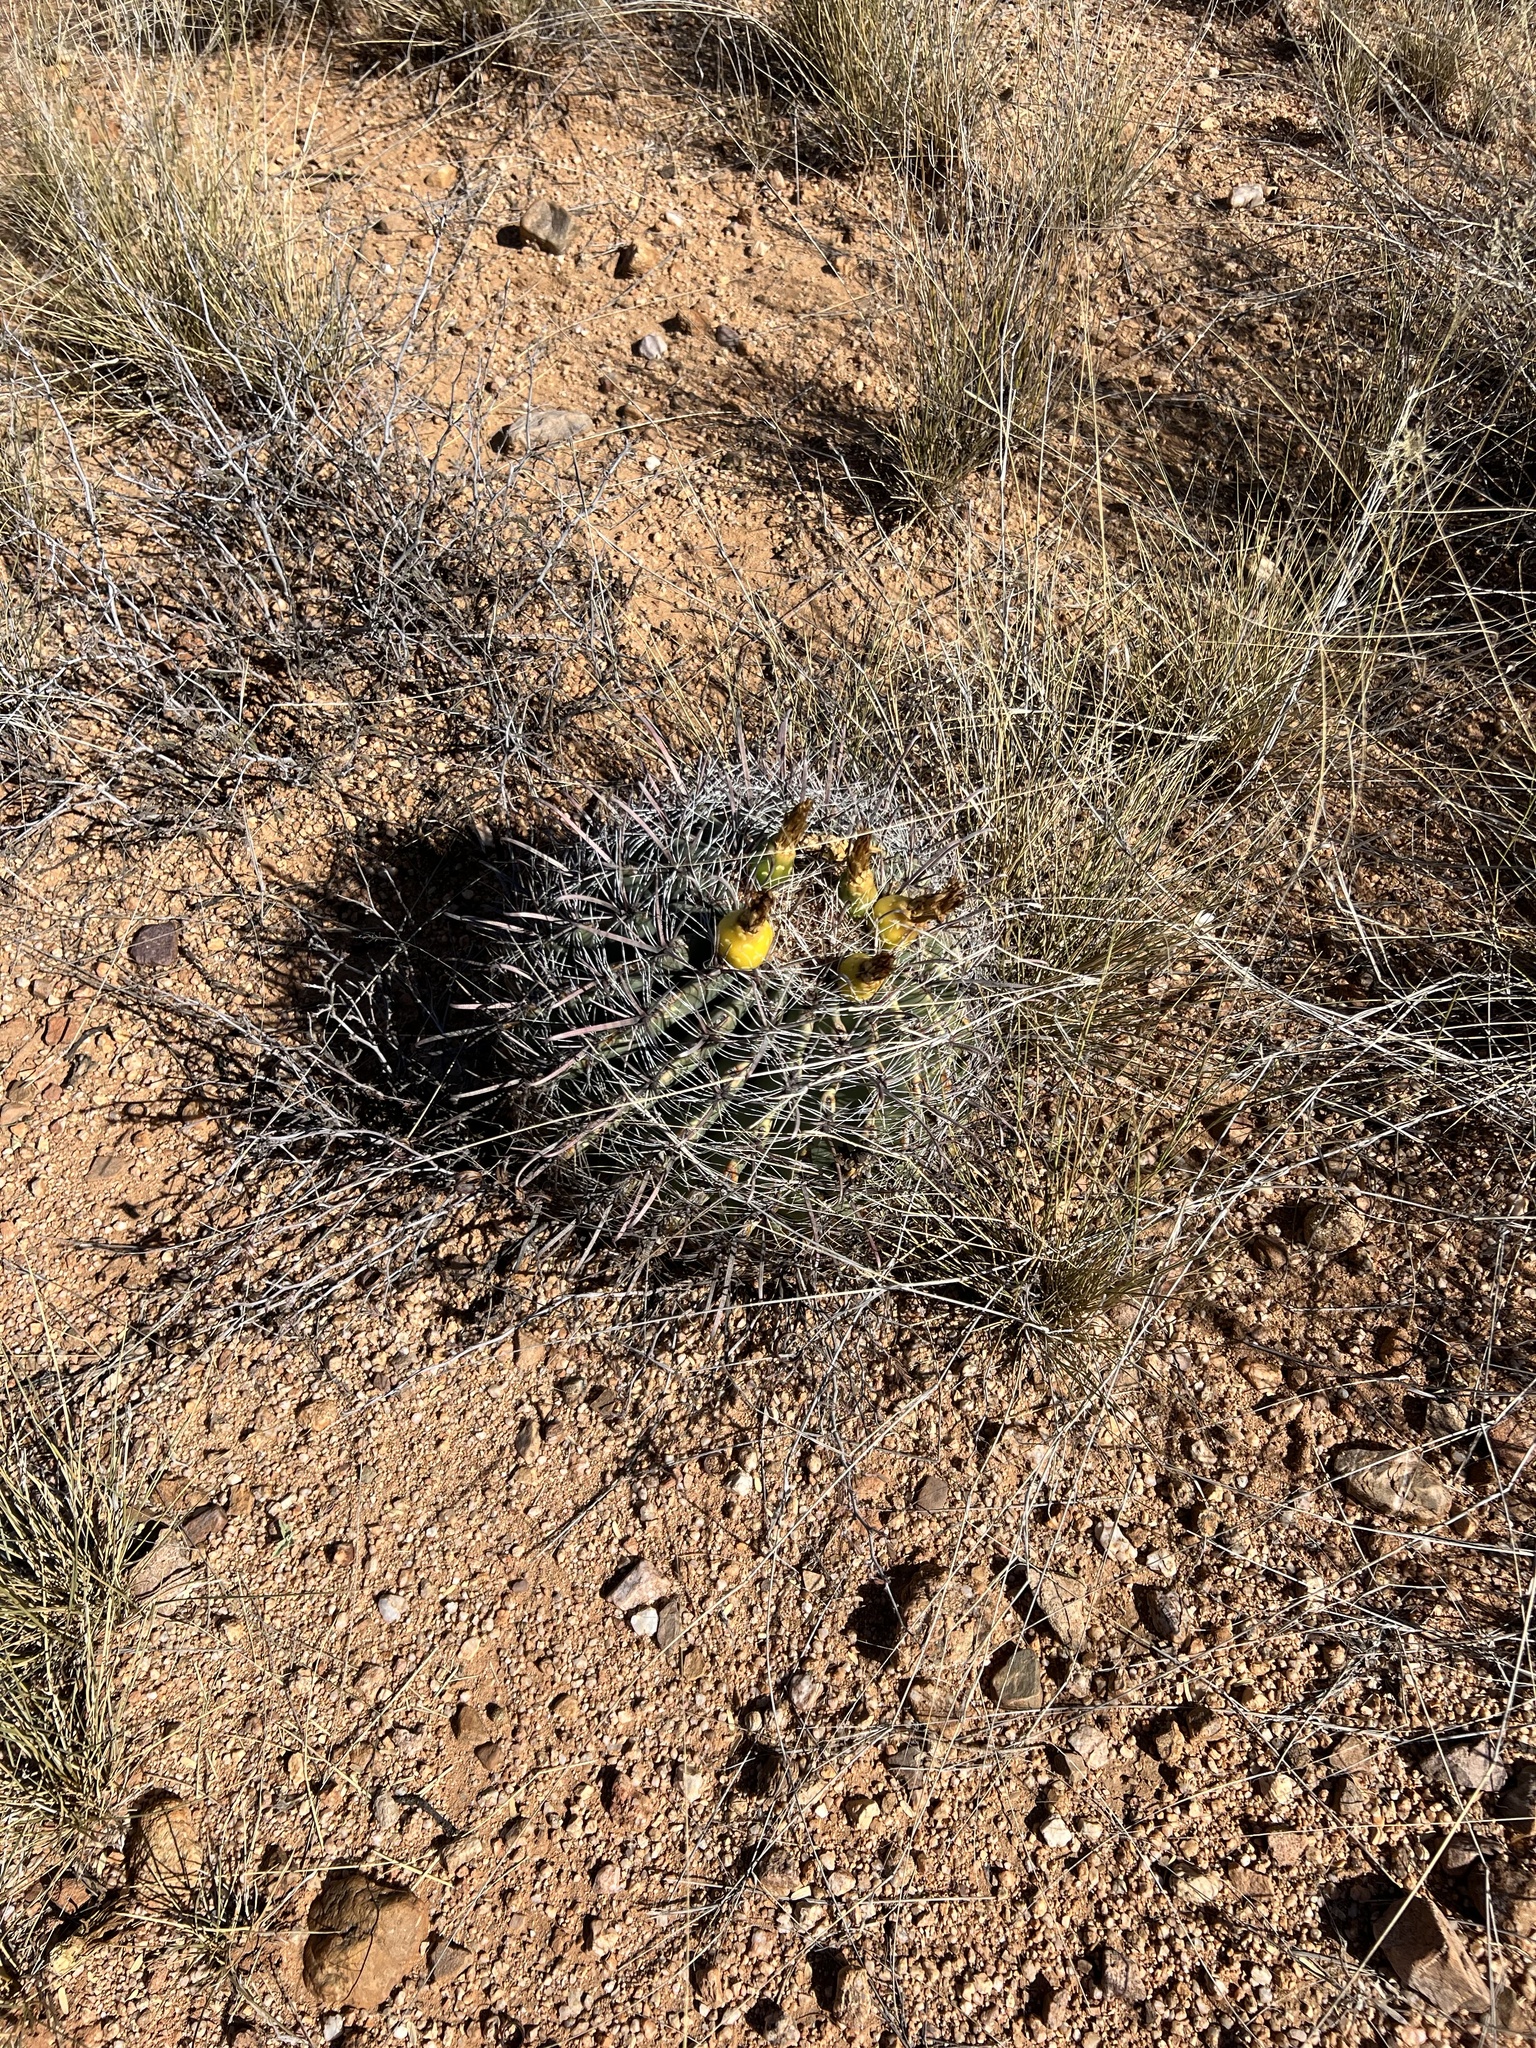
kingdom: Plantae
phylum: Tracheophyta
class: Magnoliopsida
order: Caryophyllales
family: Cactaceae
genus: Ferocactus
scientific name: Ferocactus wislizeni
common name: Candy barrel cactus
